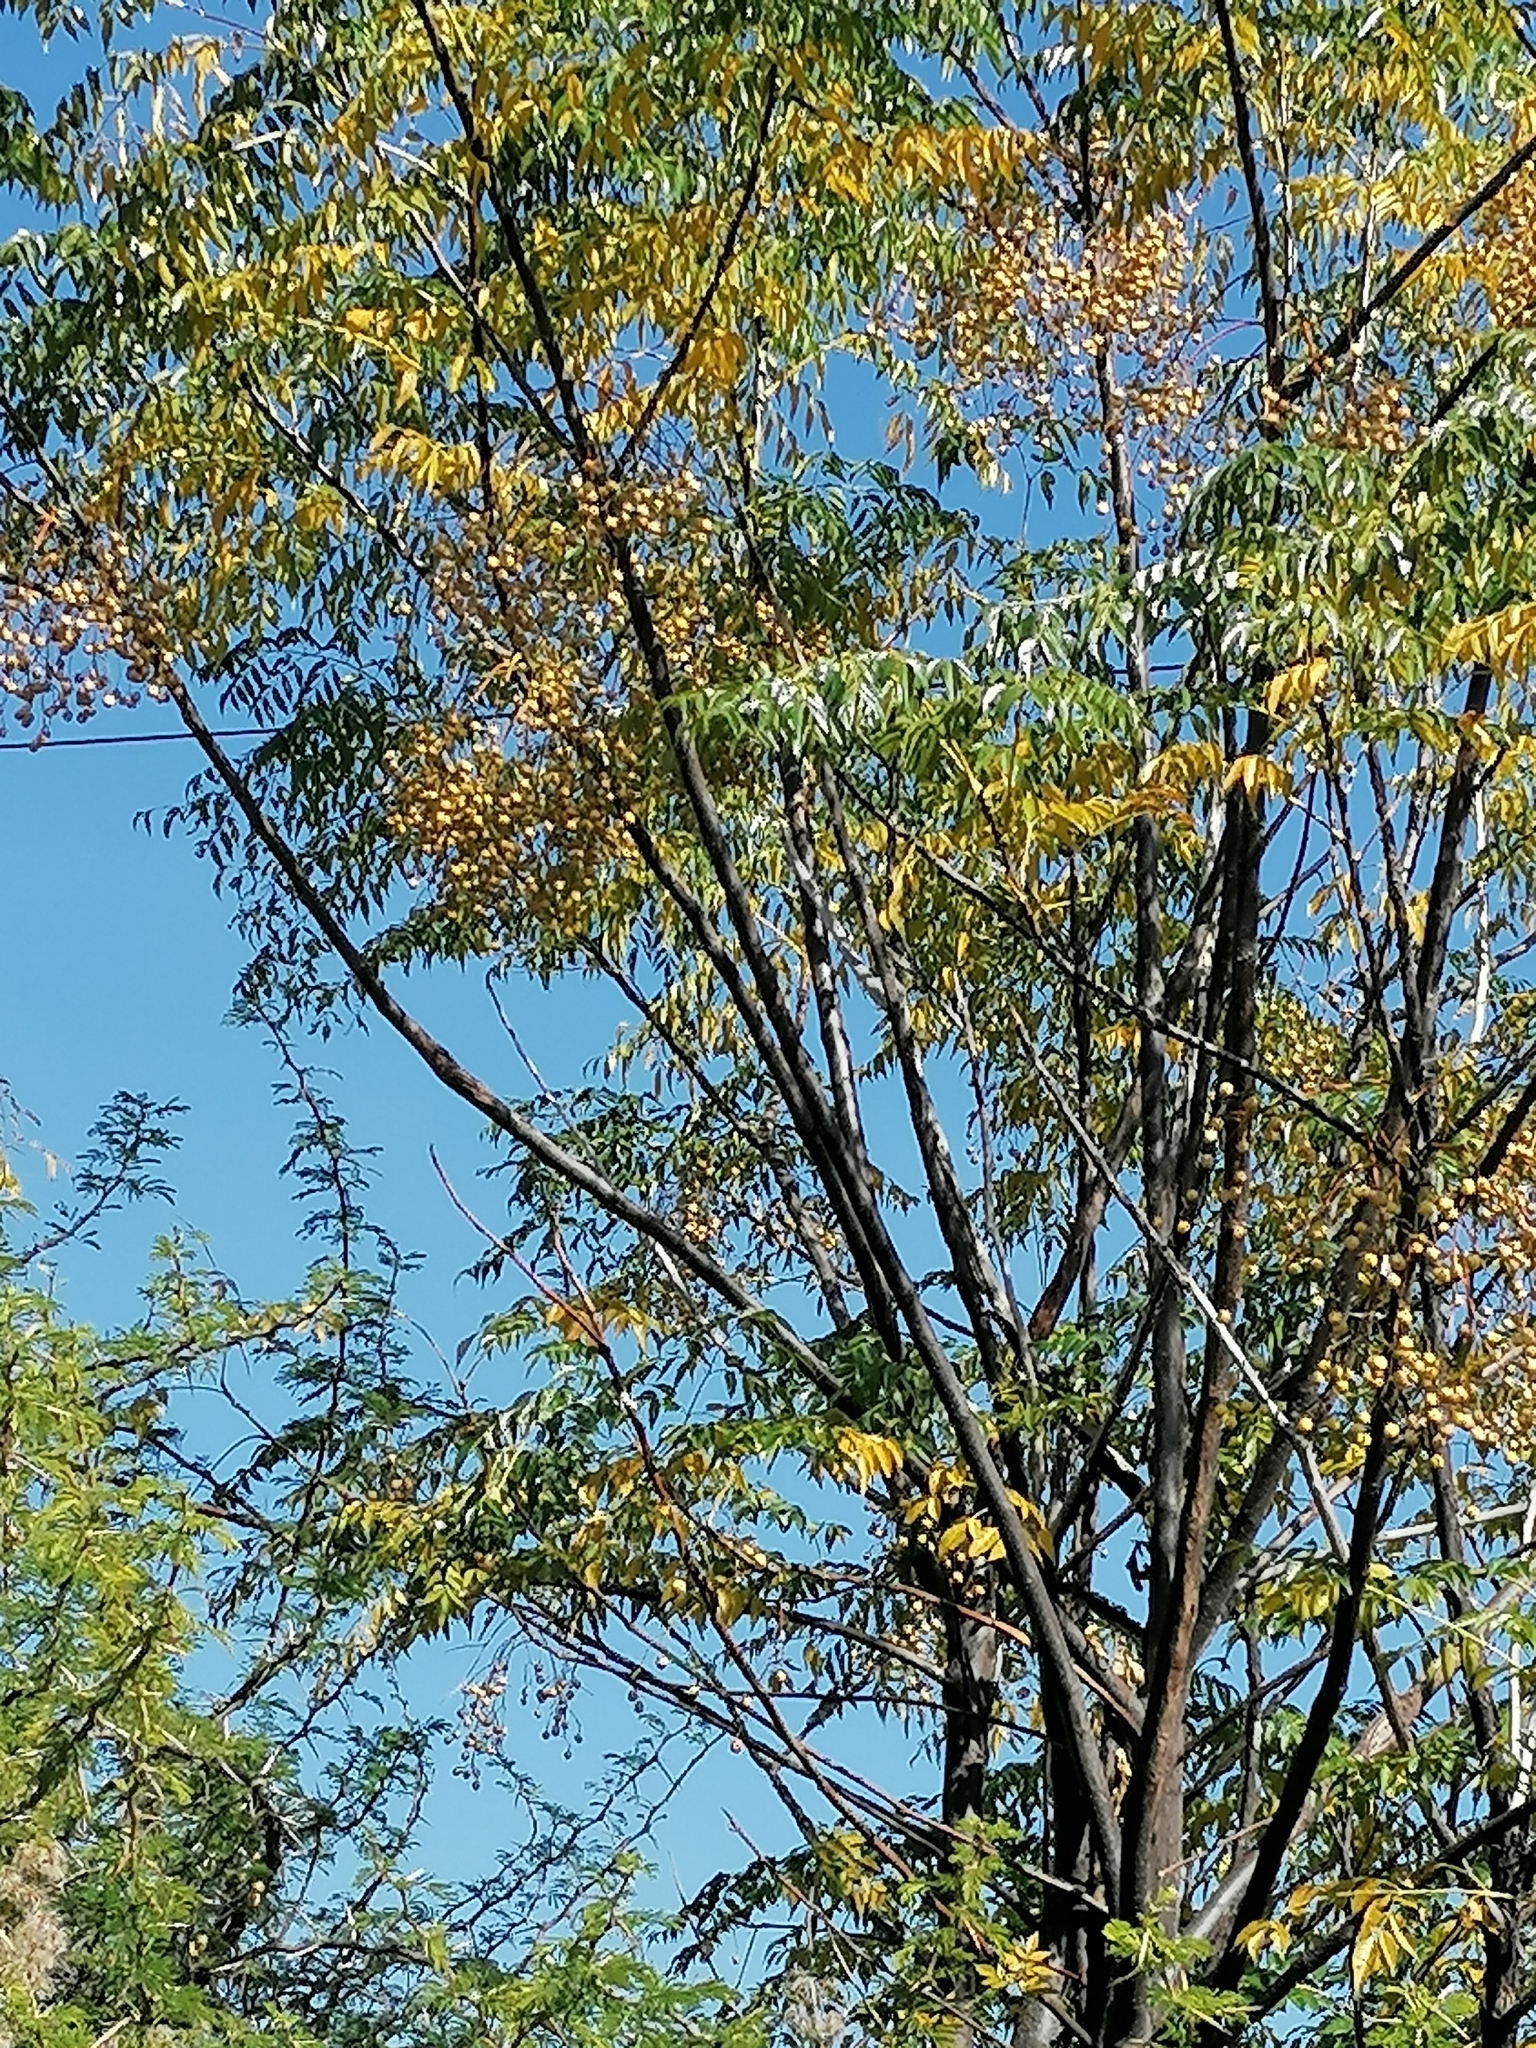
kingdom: Plantae
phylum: Tracheophyta
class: Magnoliopsida
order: Sapindales
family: Meliaceae
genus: Melia
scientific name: Melia azedarach
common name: Chinaberrytree
